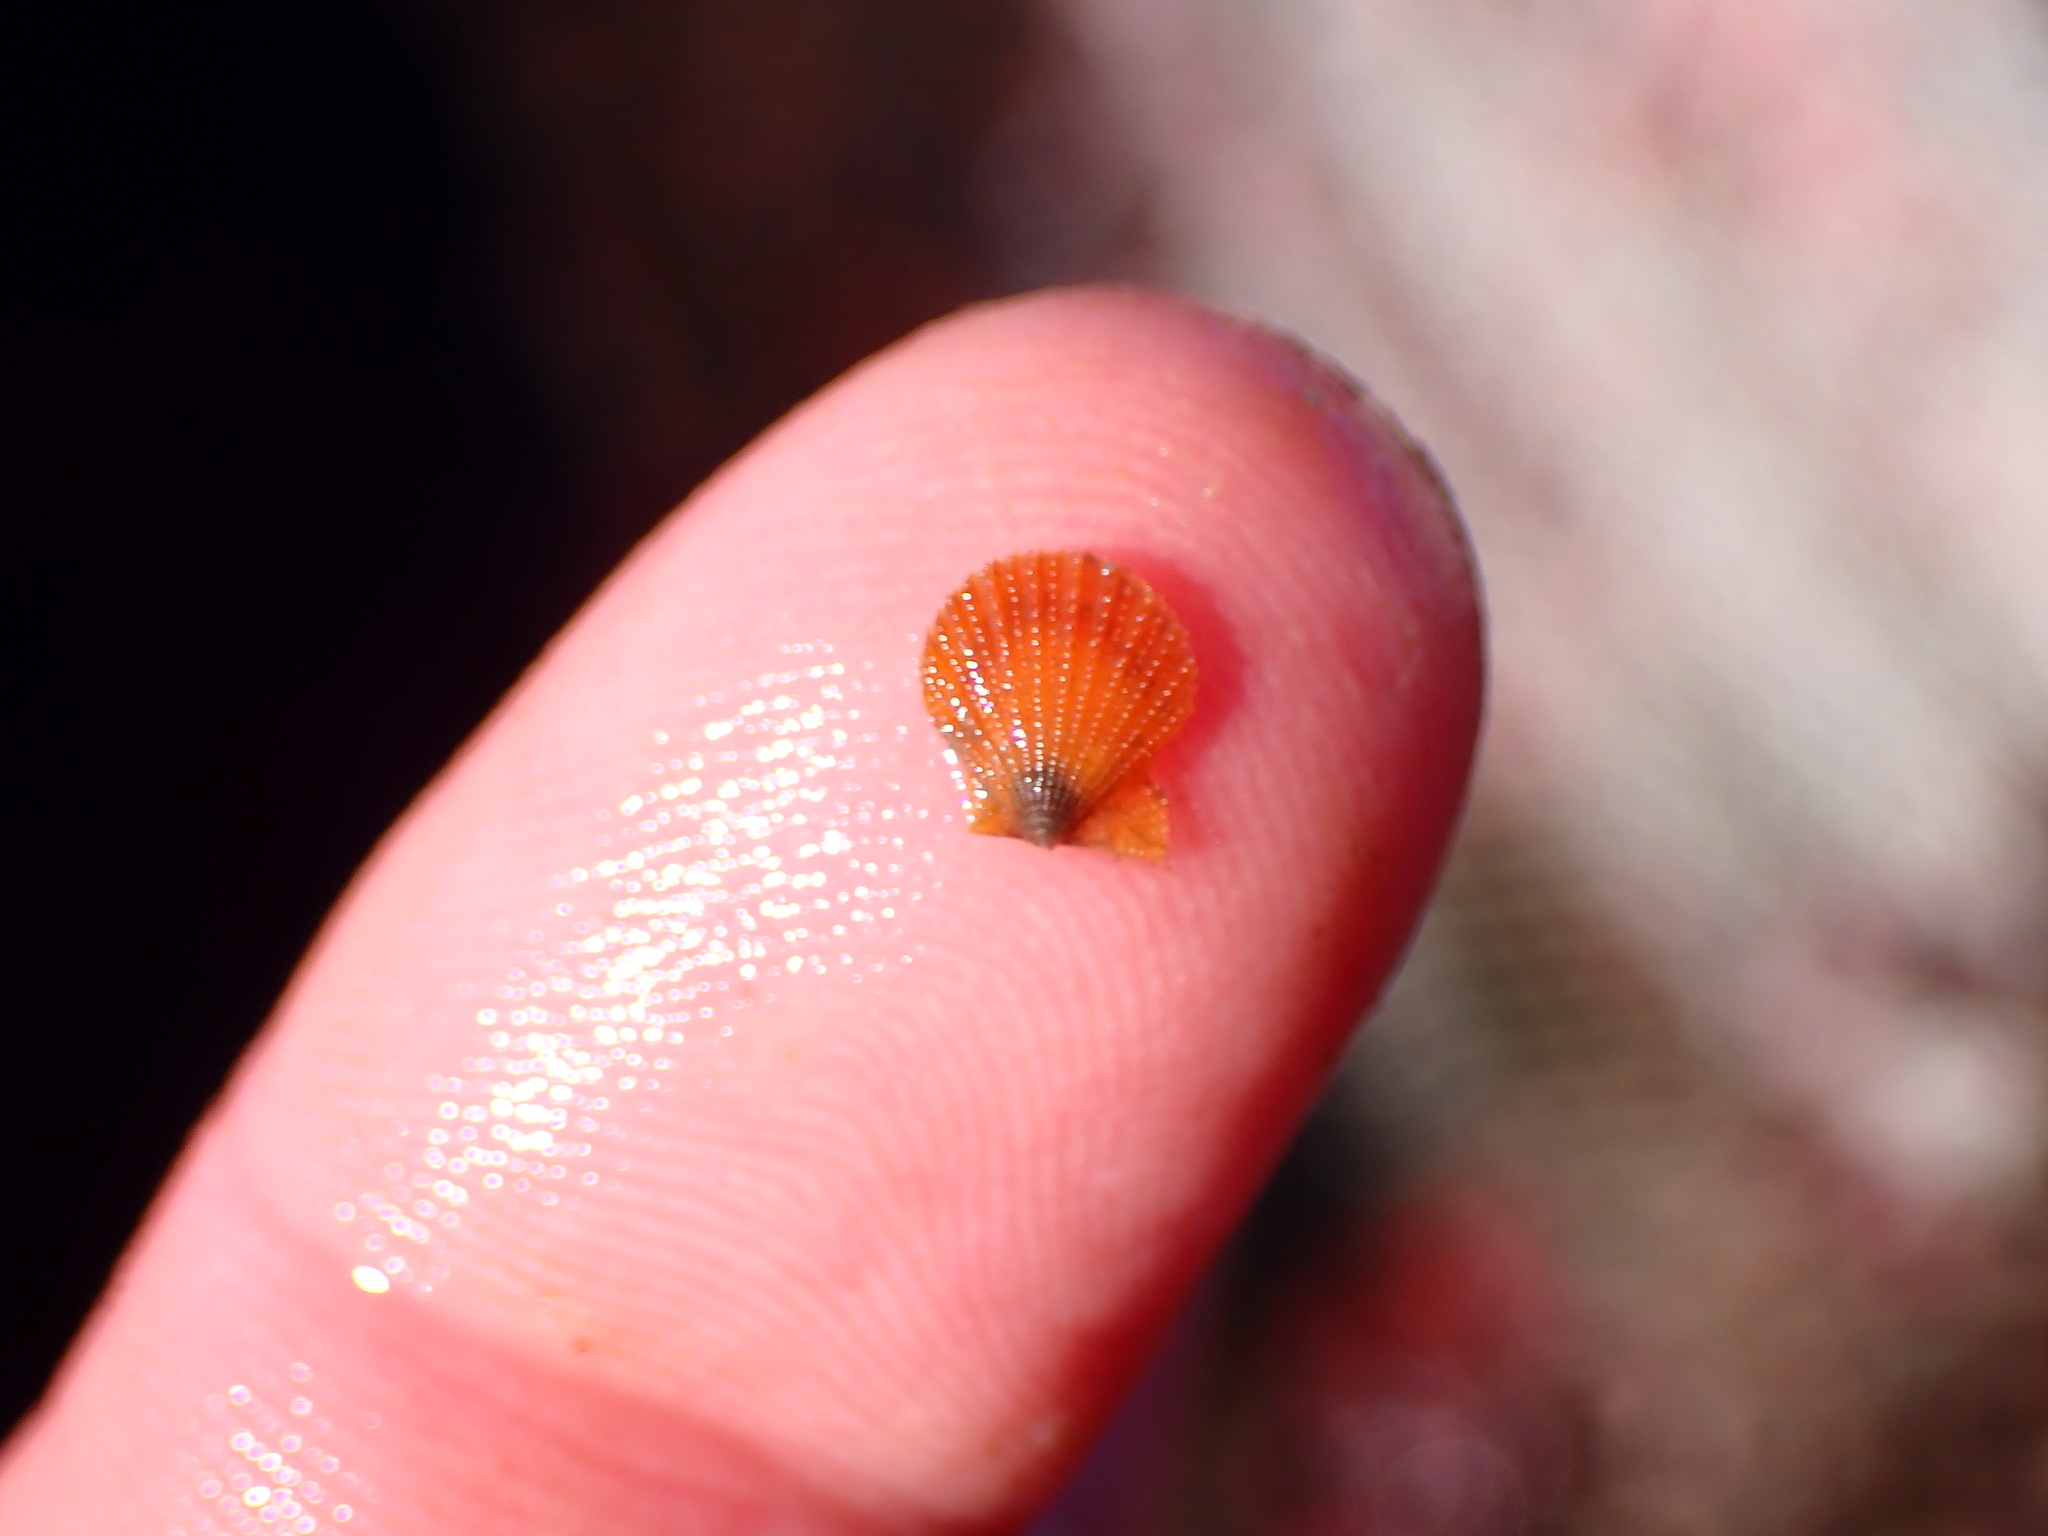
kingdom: Animalia
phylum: Mollusca
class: Bivalvia
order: Pectinida
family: Pectinidae
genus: Crassadoma
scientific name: Crassadoma gigantea
